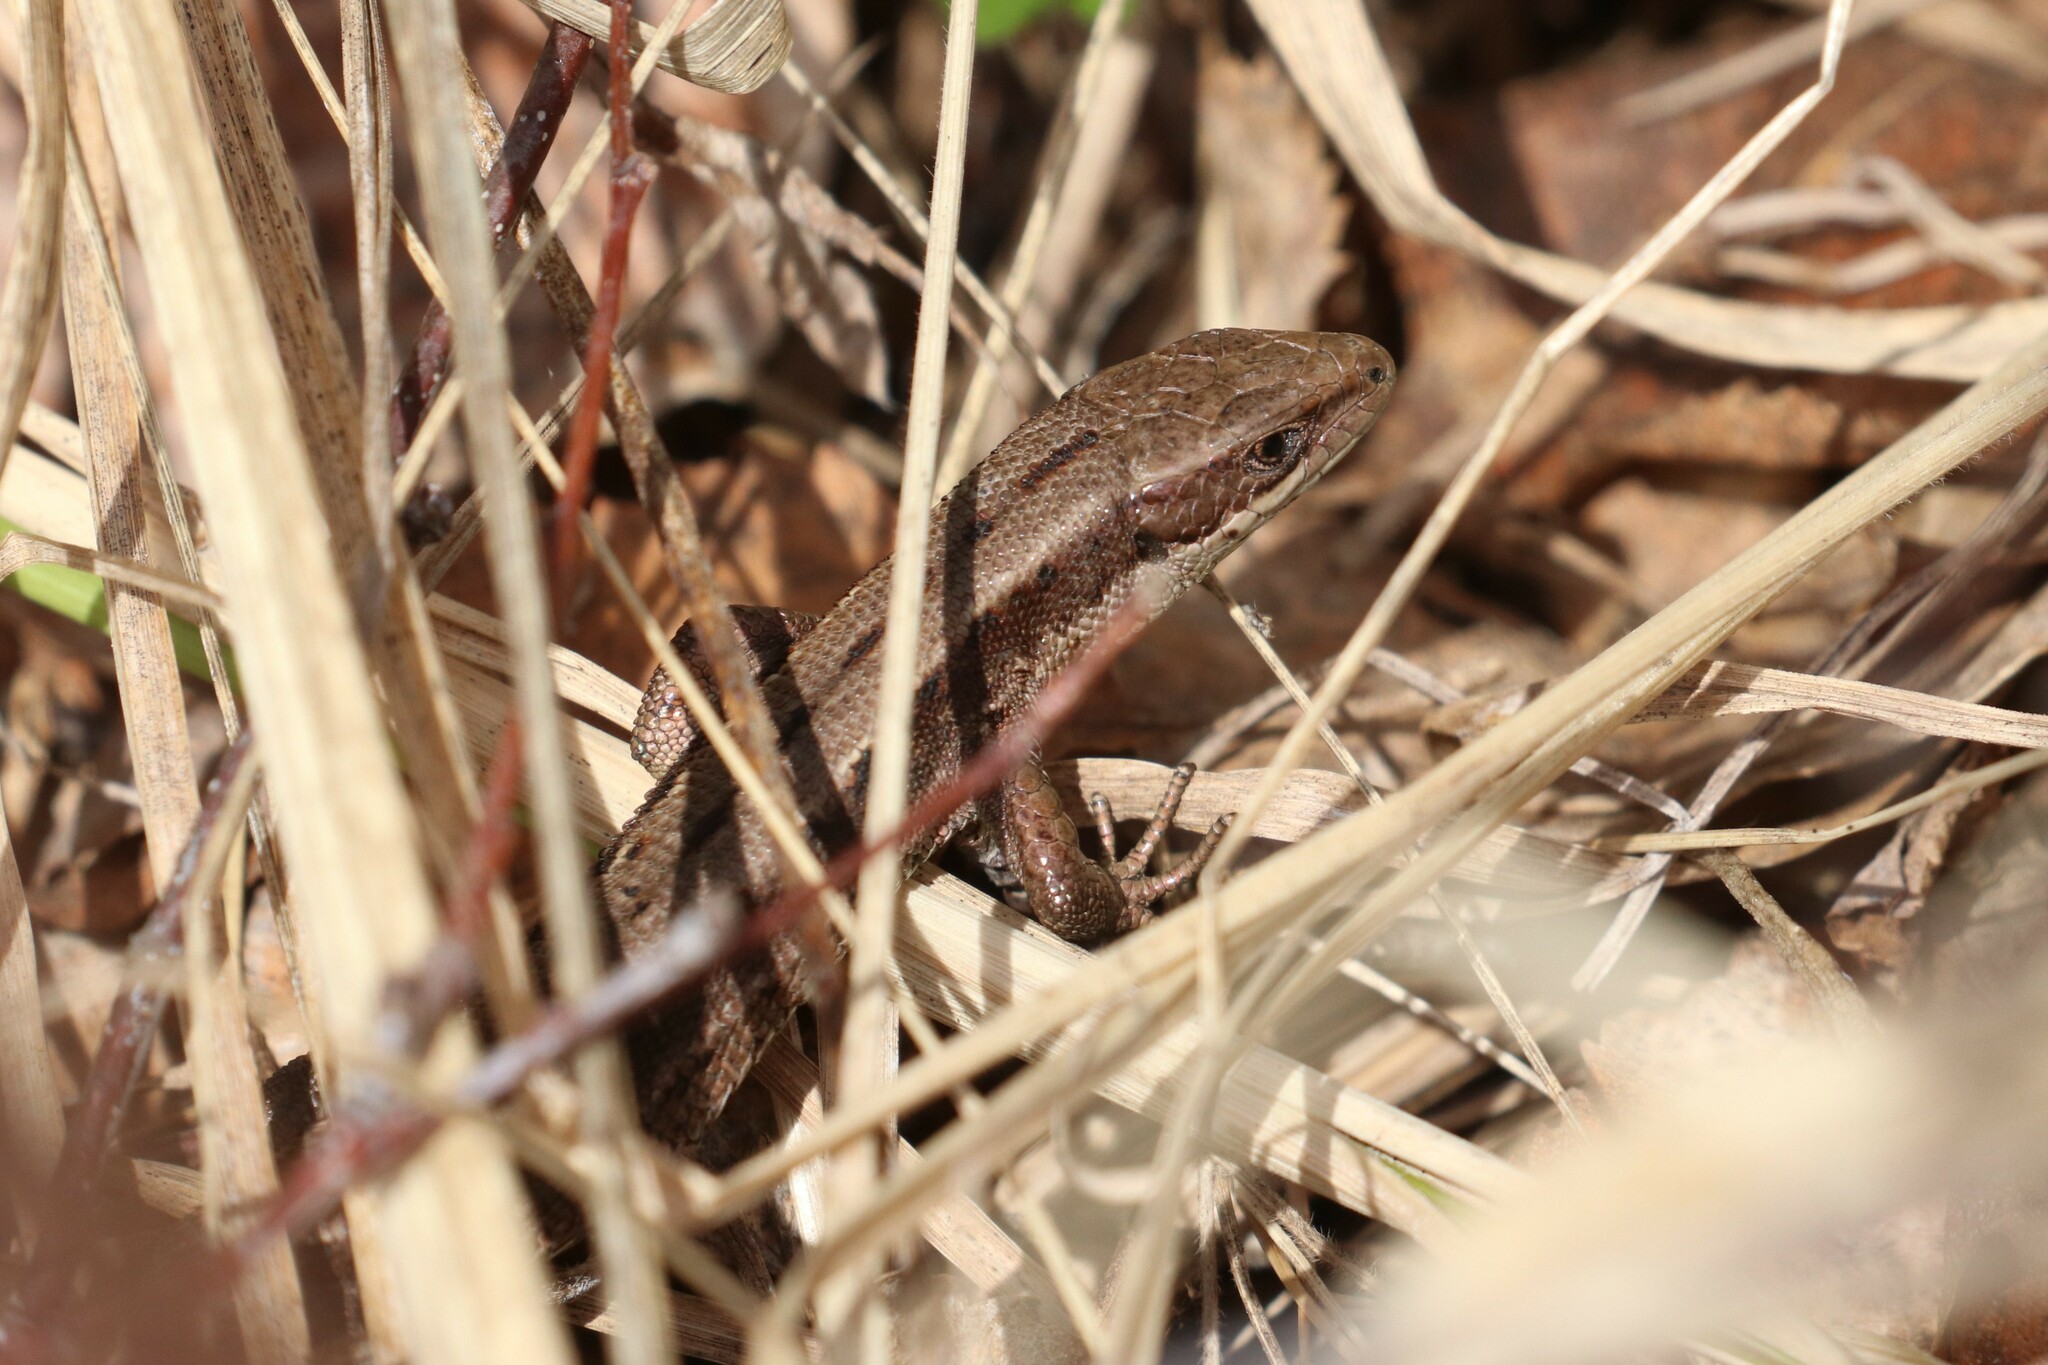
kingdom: Animalia
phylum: Chordata
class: Squamata
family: Lacertidae
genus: Zootoca
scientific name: Zootoca vivipara
